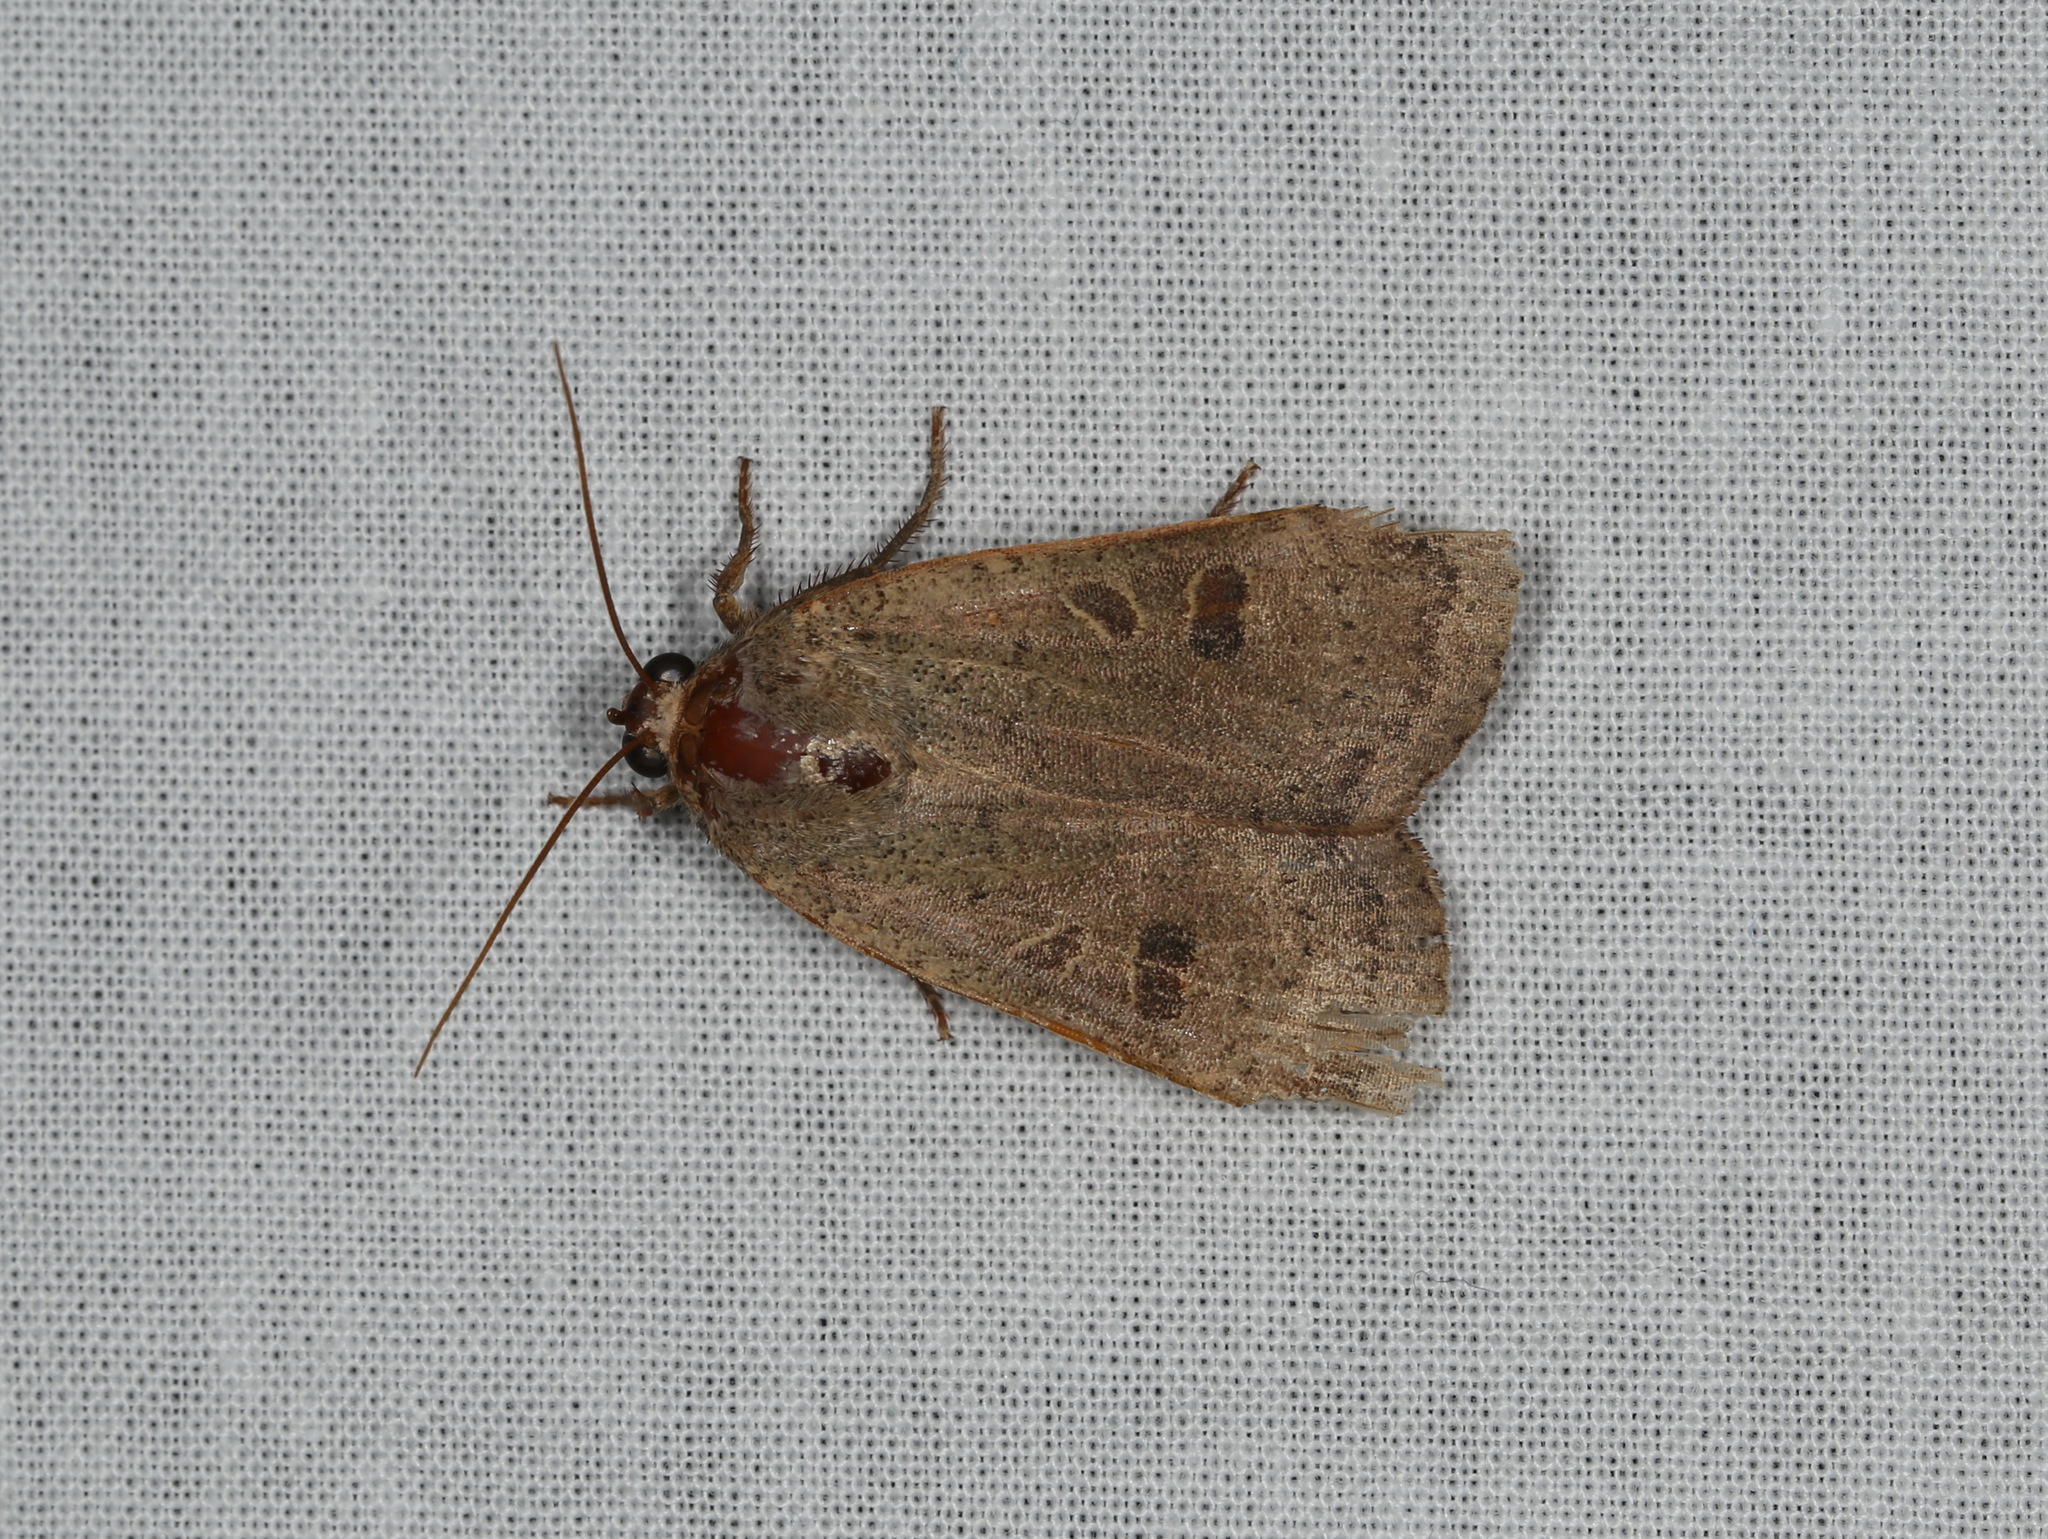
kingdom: Animalia
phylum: Arthropoda
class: Insecta
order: Lepidoptera
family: Noctuidae
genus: Noctua
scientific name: Noctua comes
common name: Lesser yellow underwing
